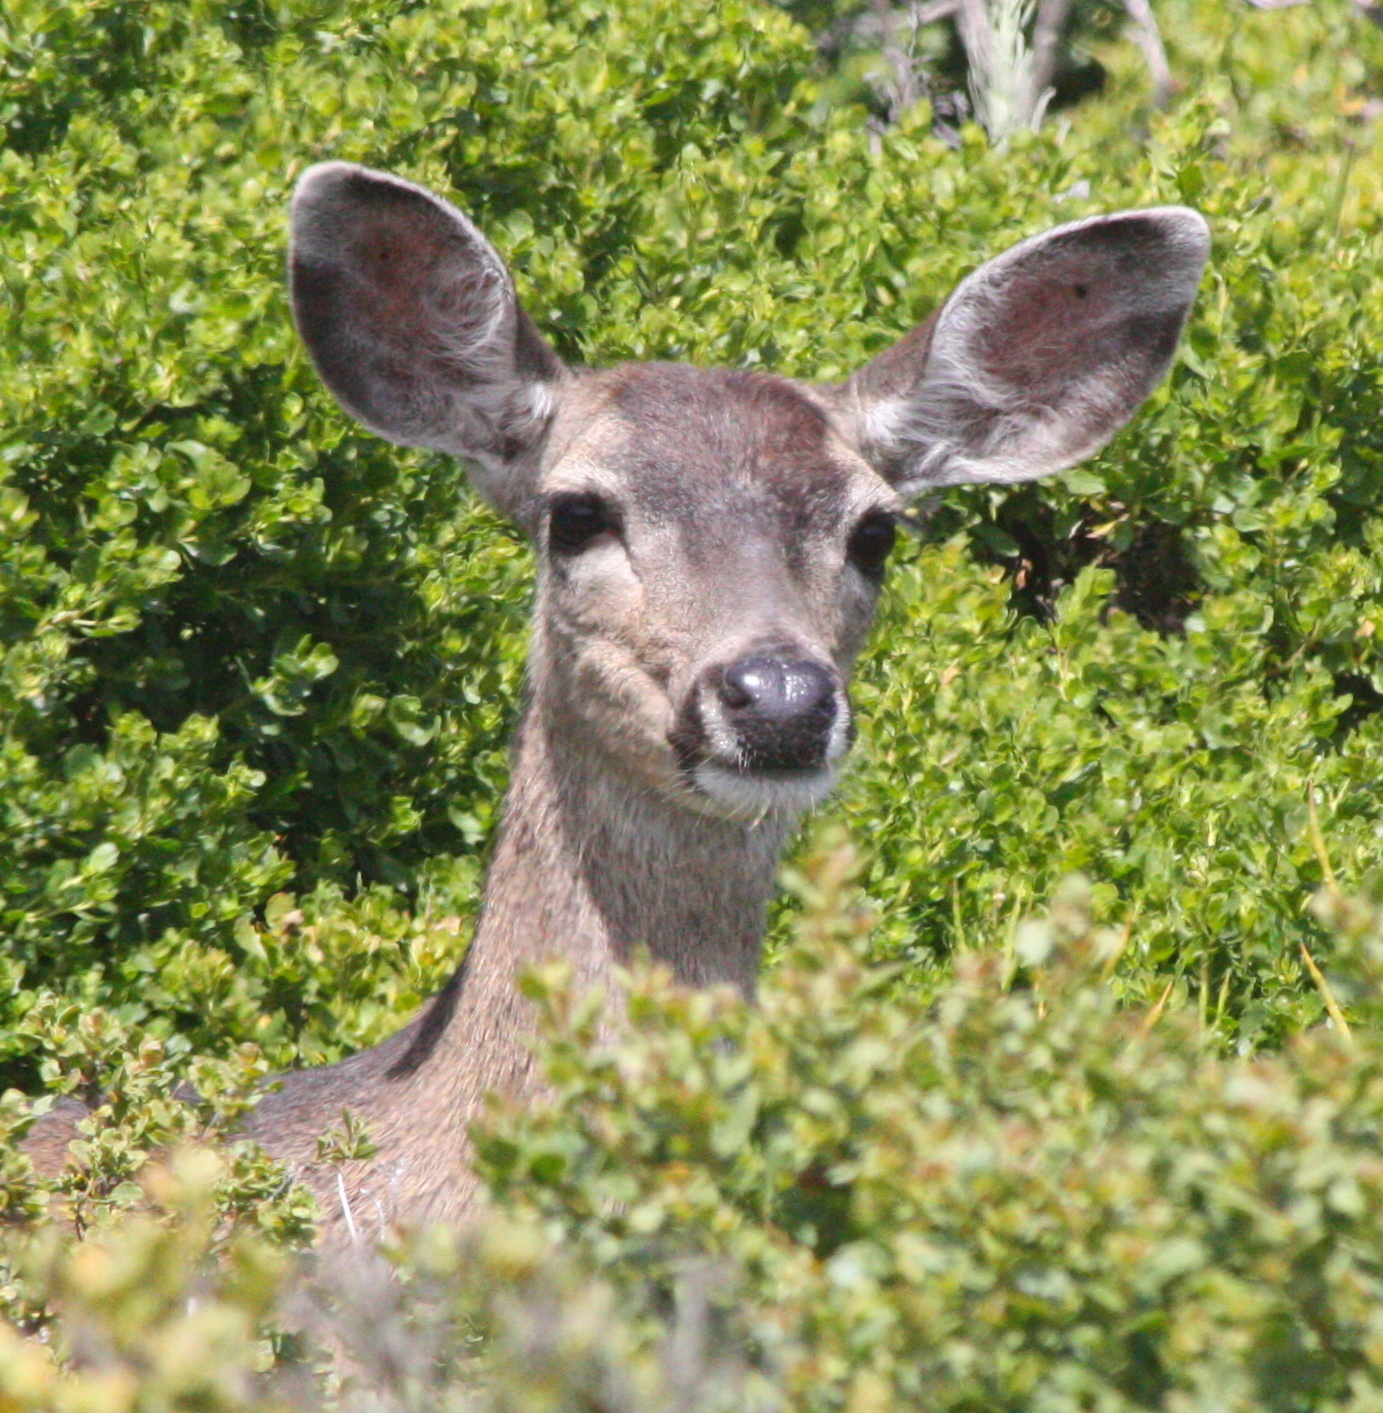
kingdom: Animalia
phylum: Chordata
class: Mammalia
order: Artiodactyla
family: Cervidae
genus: Odocoileus
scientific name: Odocoileus hemionus
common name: Mule deer
